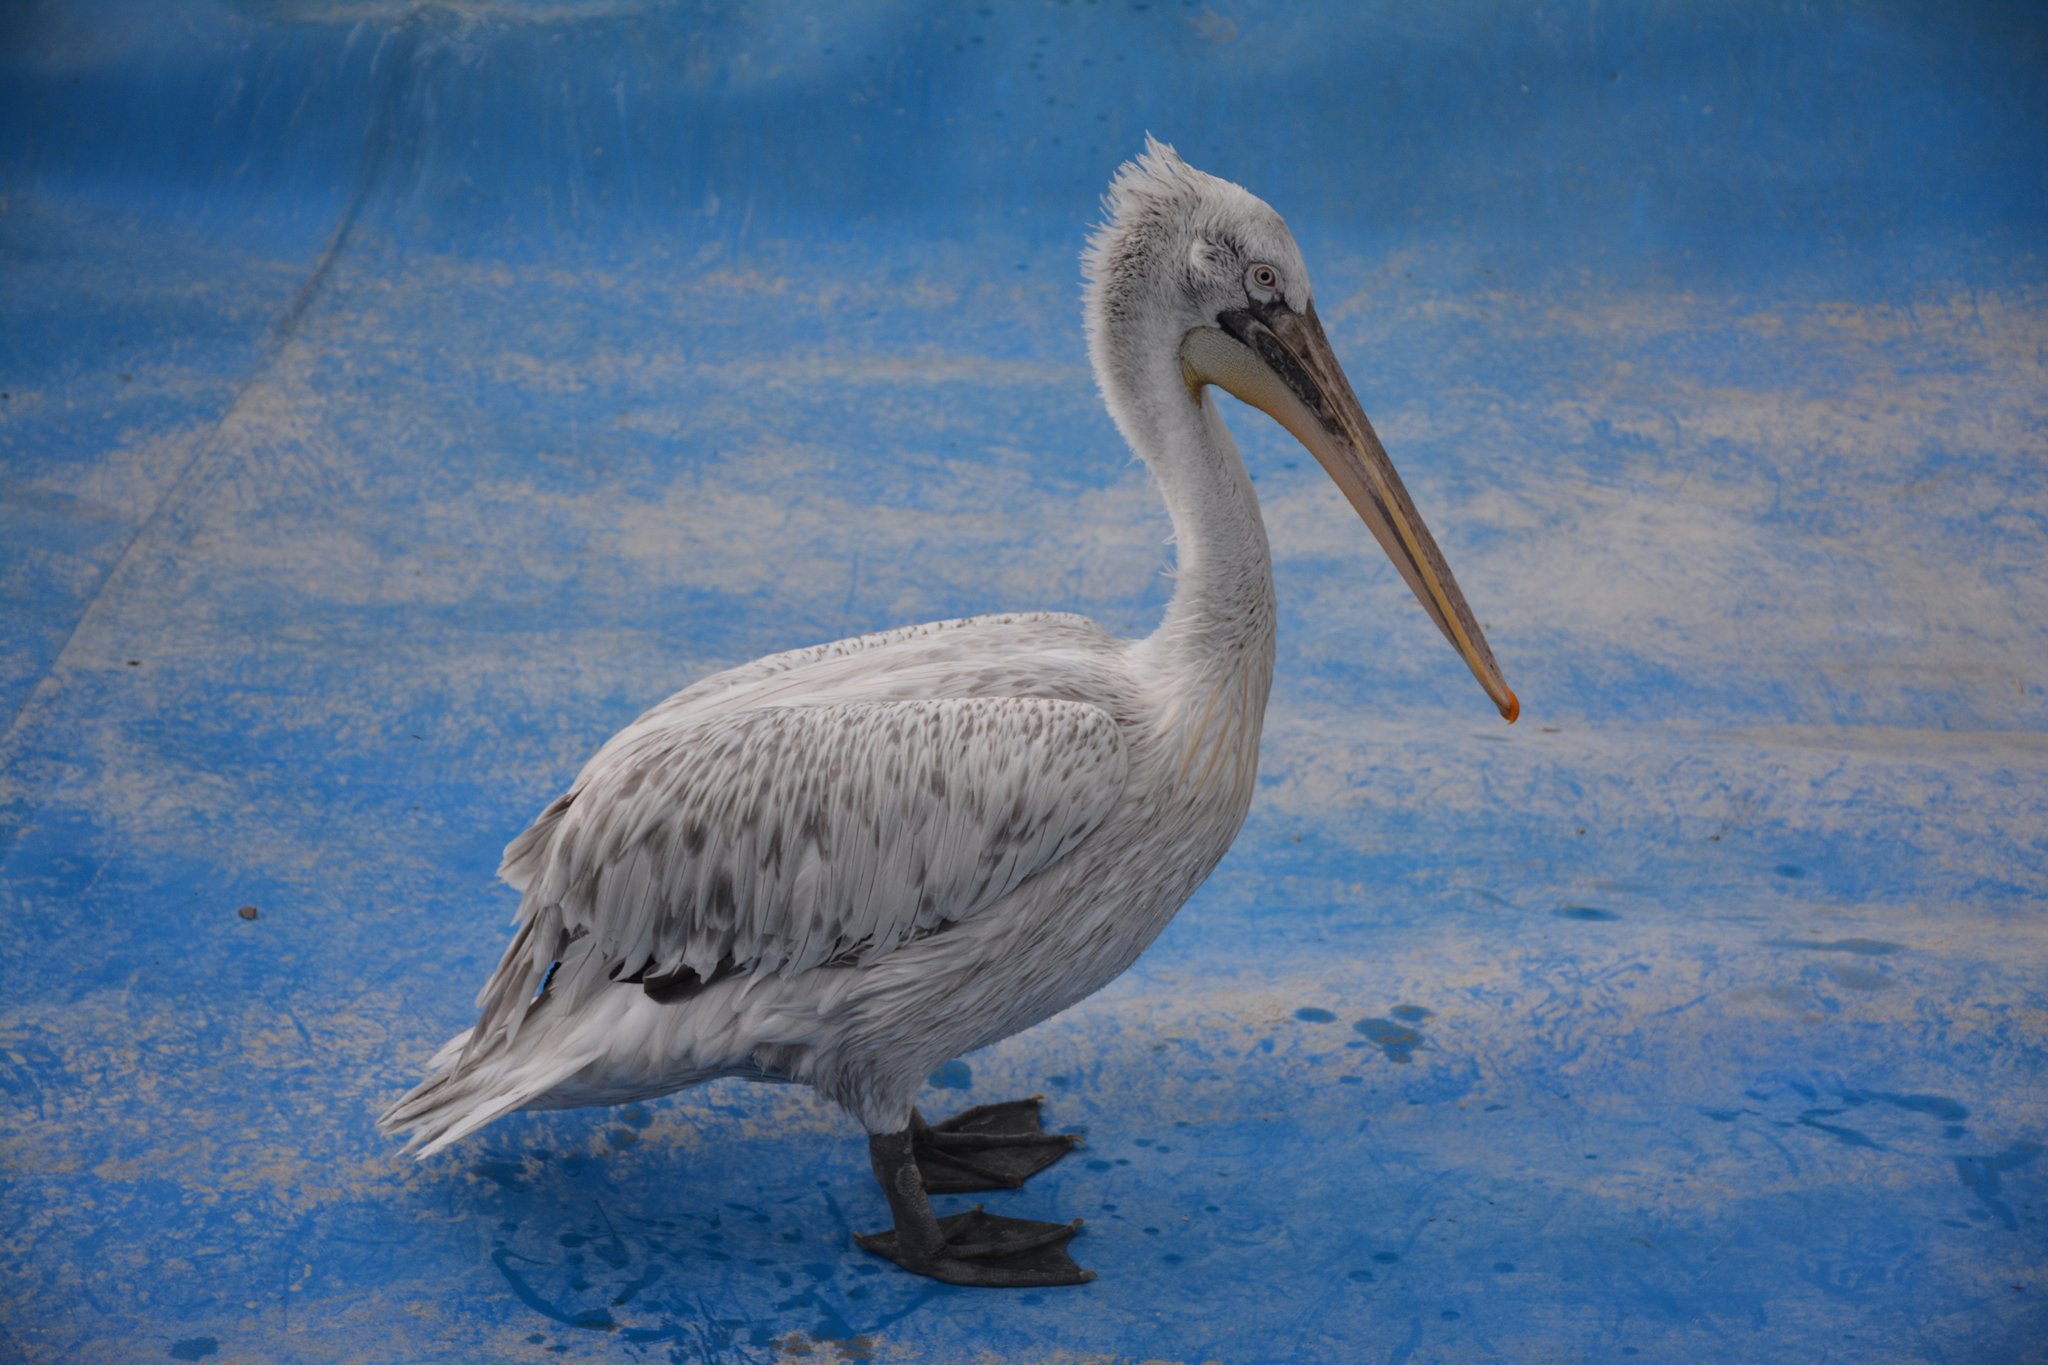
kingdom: Animalia
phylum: Chordata
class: Aves
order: Pelecaniformes
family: Pelecanidae
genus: Pelecanus
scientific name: Pelecanus crispus
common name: Dalmatian pelican
